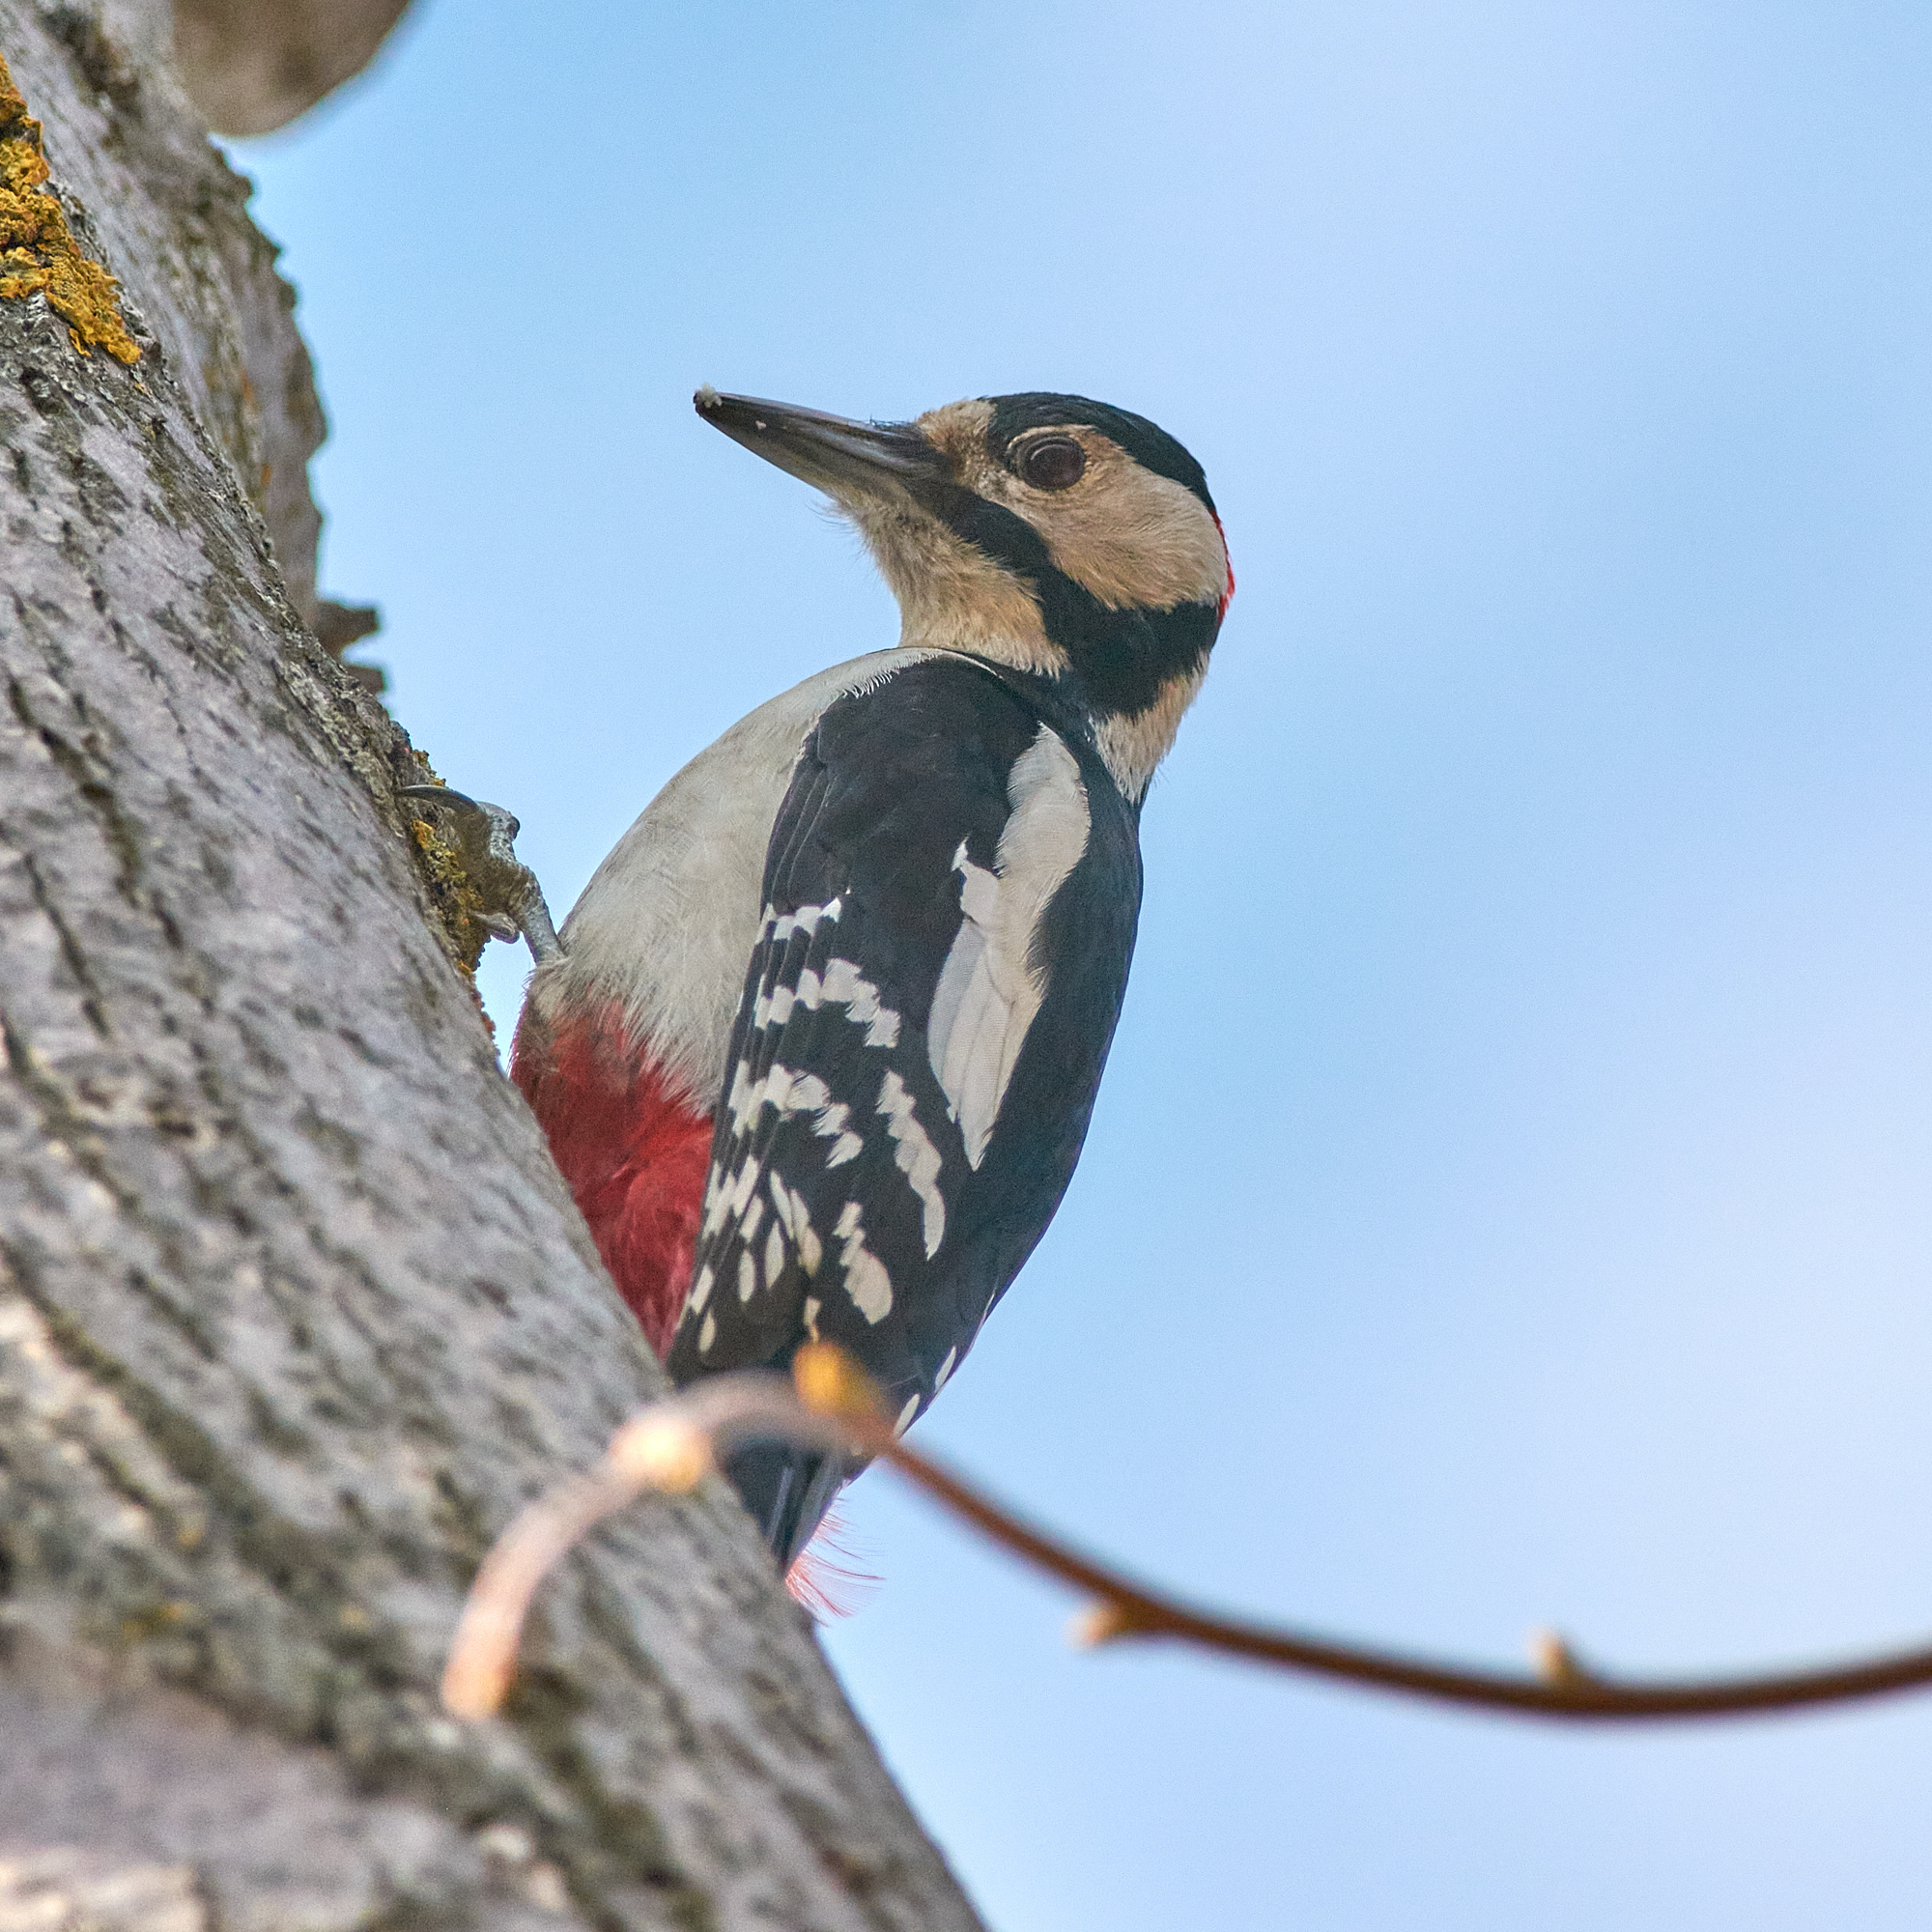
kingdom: Animalia
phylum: Chordata
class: Aves
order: Piciformes
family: Picidae
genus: Dendrocopos
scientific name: Dendrocopos major
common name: Great spotted woodpecker
